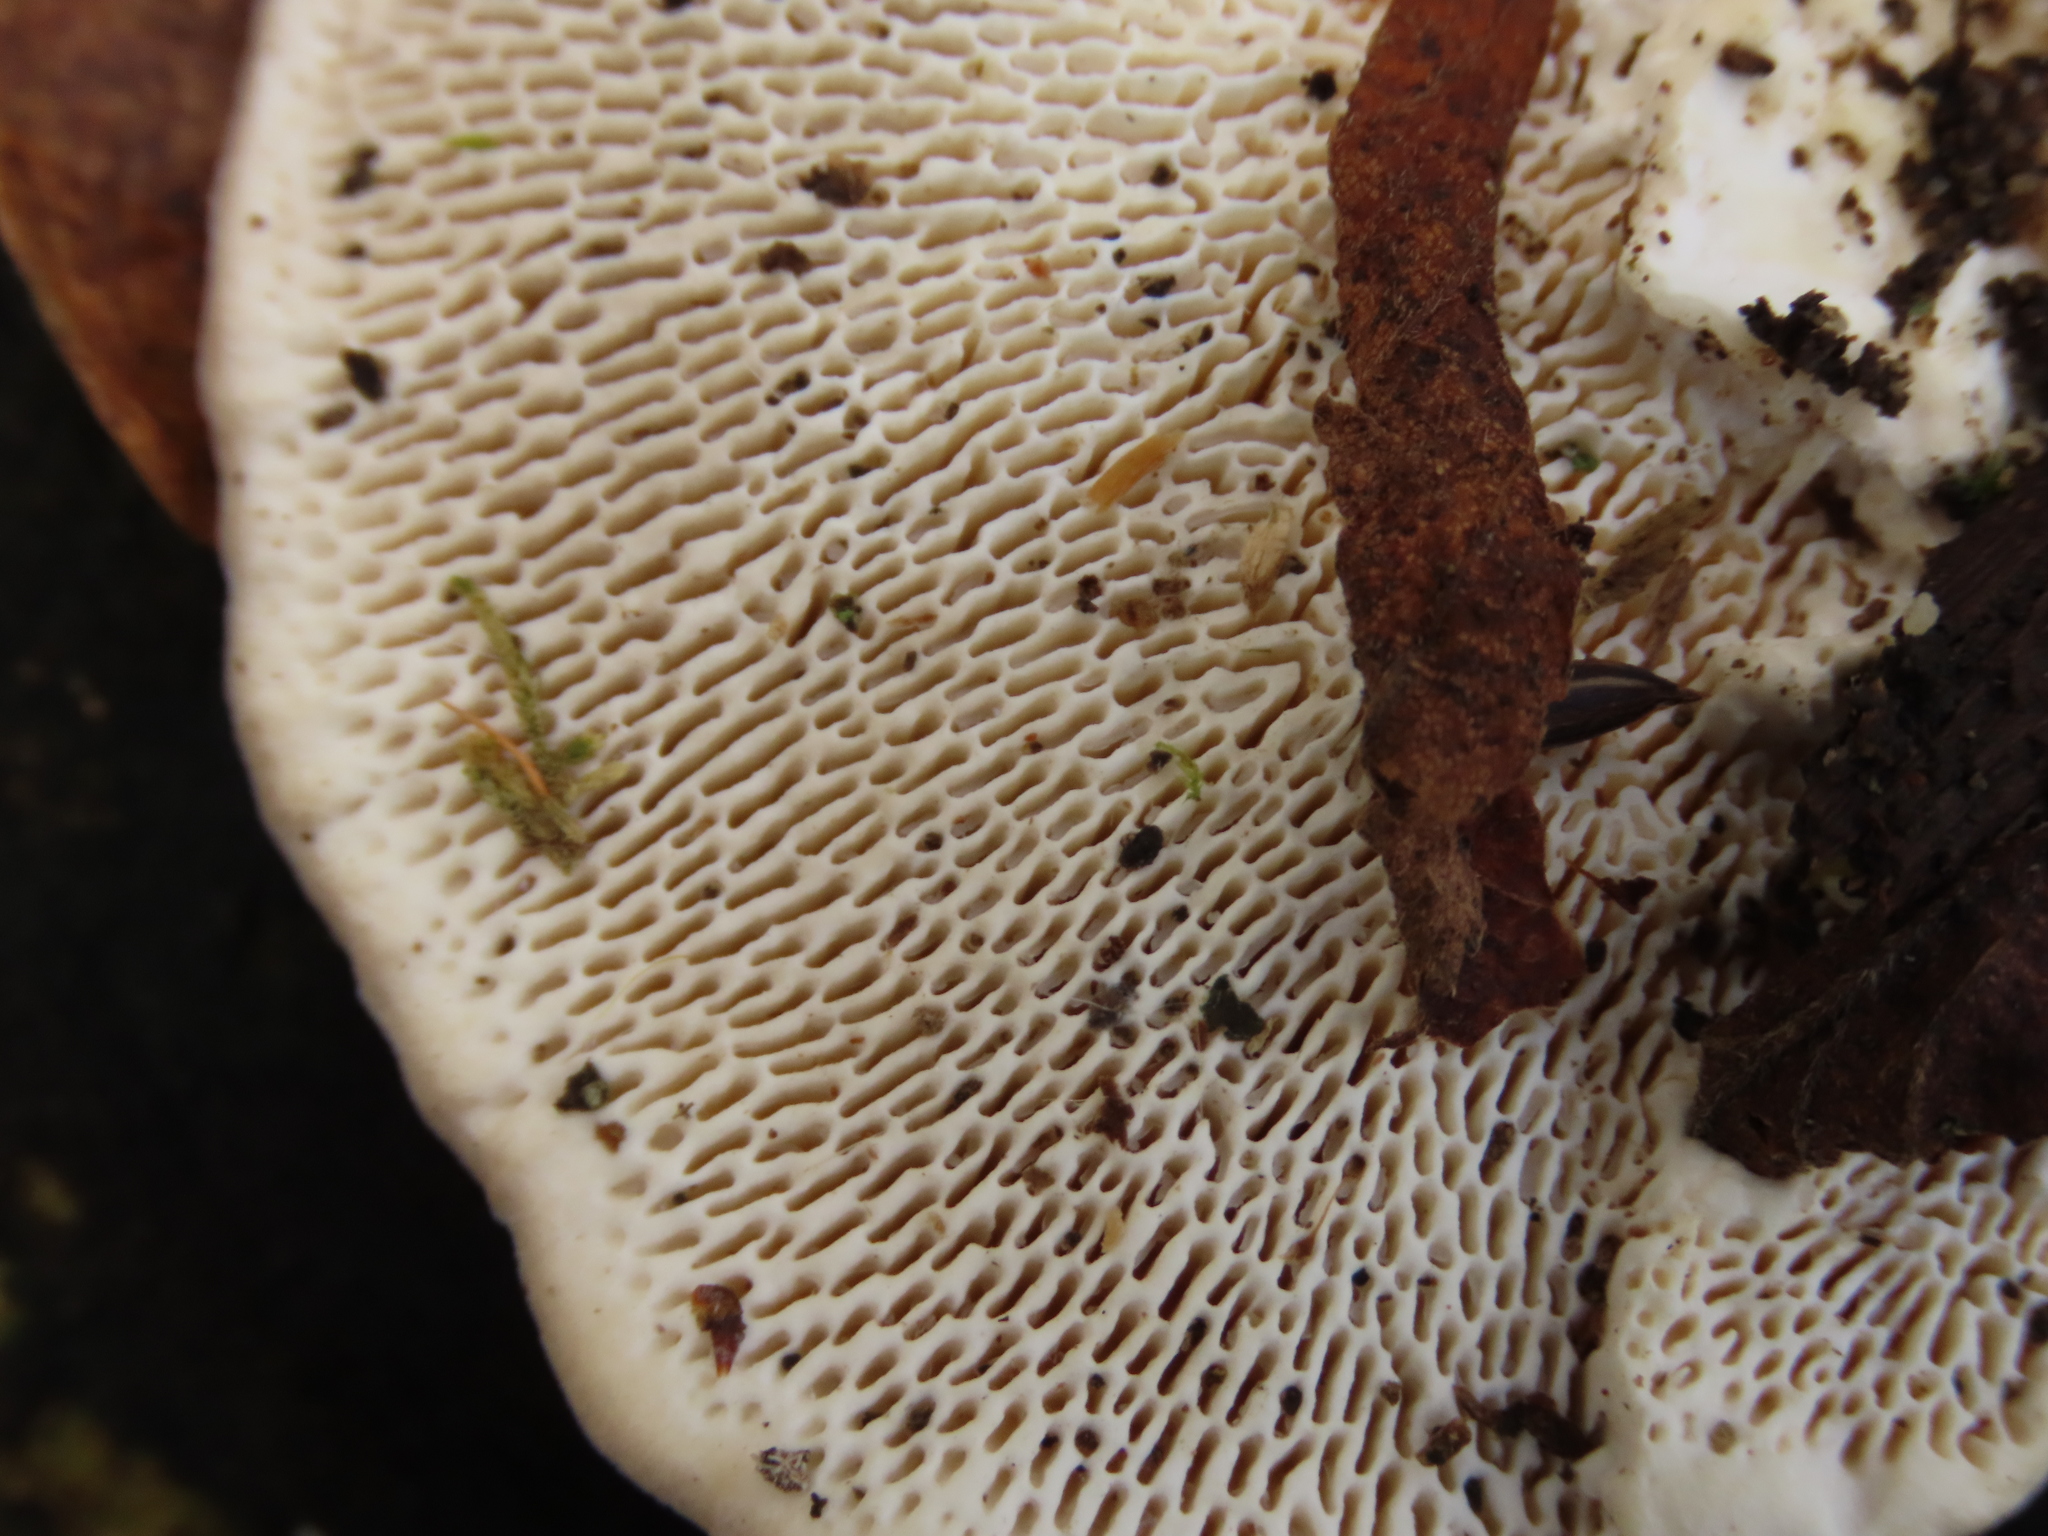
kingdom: Fungi
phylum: Basidiomycota
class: Agaricomycetes
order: Polyporales
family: Polyporaceae
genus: Trametes
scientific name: Trametes gibbosa
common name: Lumpy bracket
